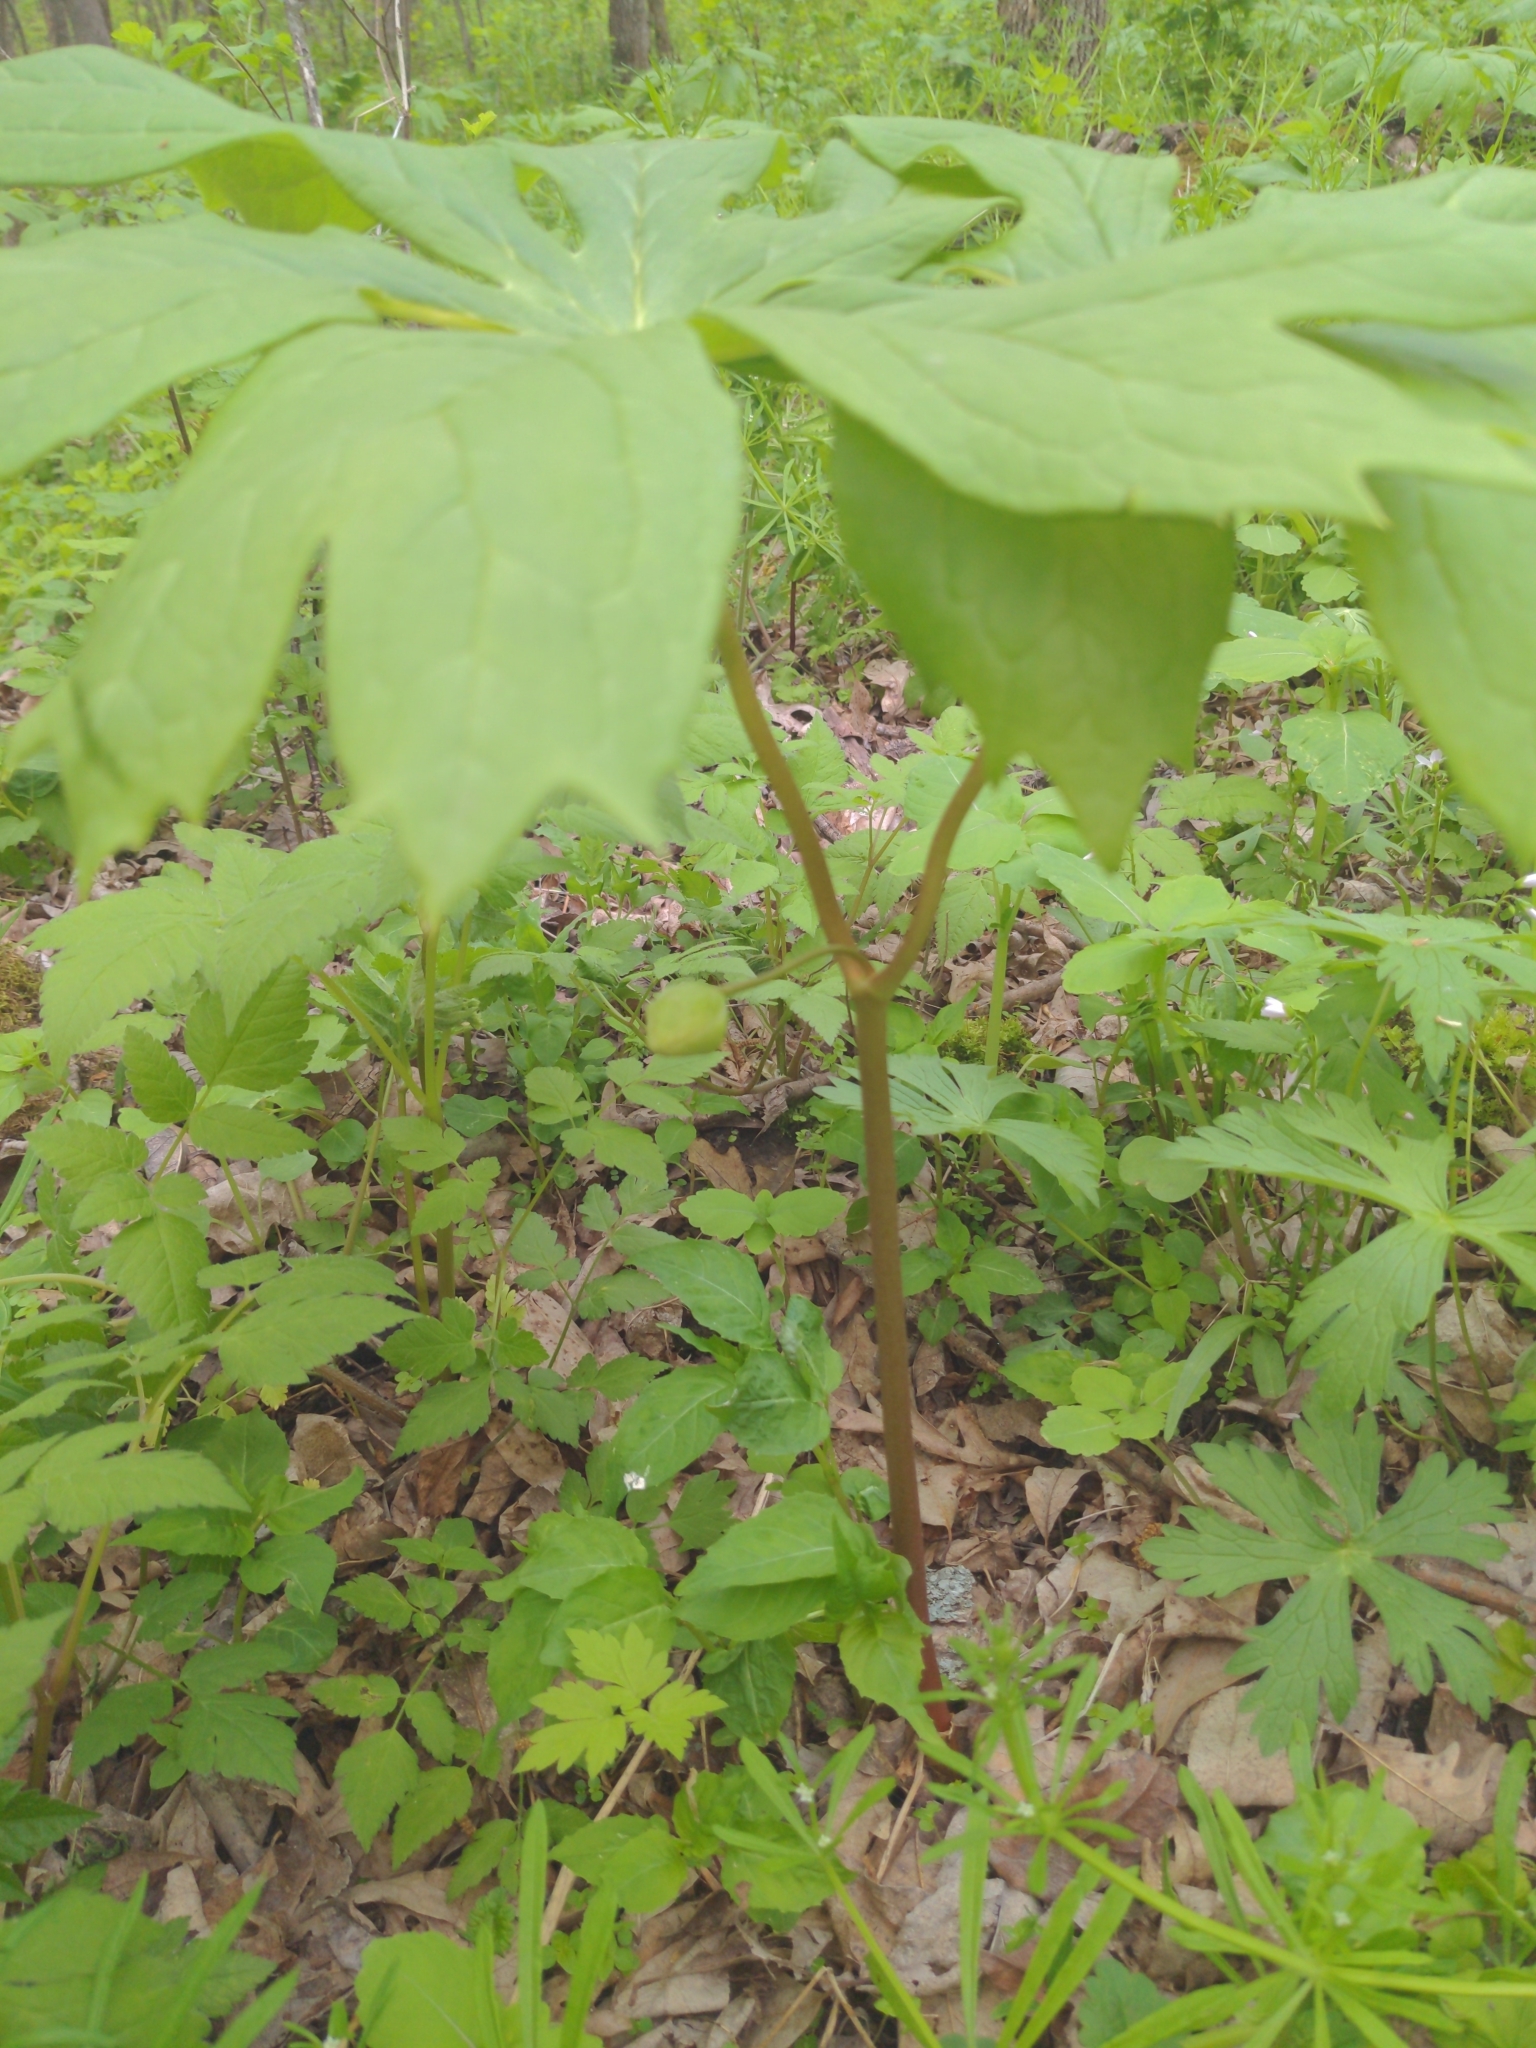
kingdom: Plantae
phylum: Tracheophyta
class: Magnoliopsida
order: Ranunculales
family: Berberidaceae
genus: Podophyllum
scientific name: Podophyllum peltatum
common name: Wild mandrake
